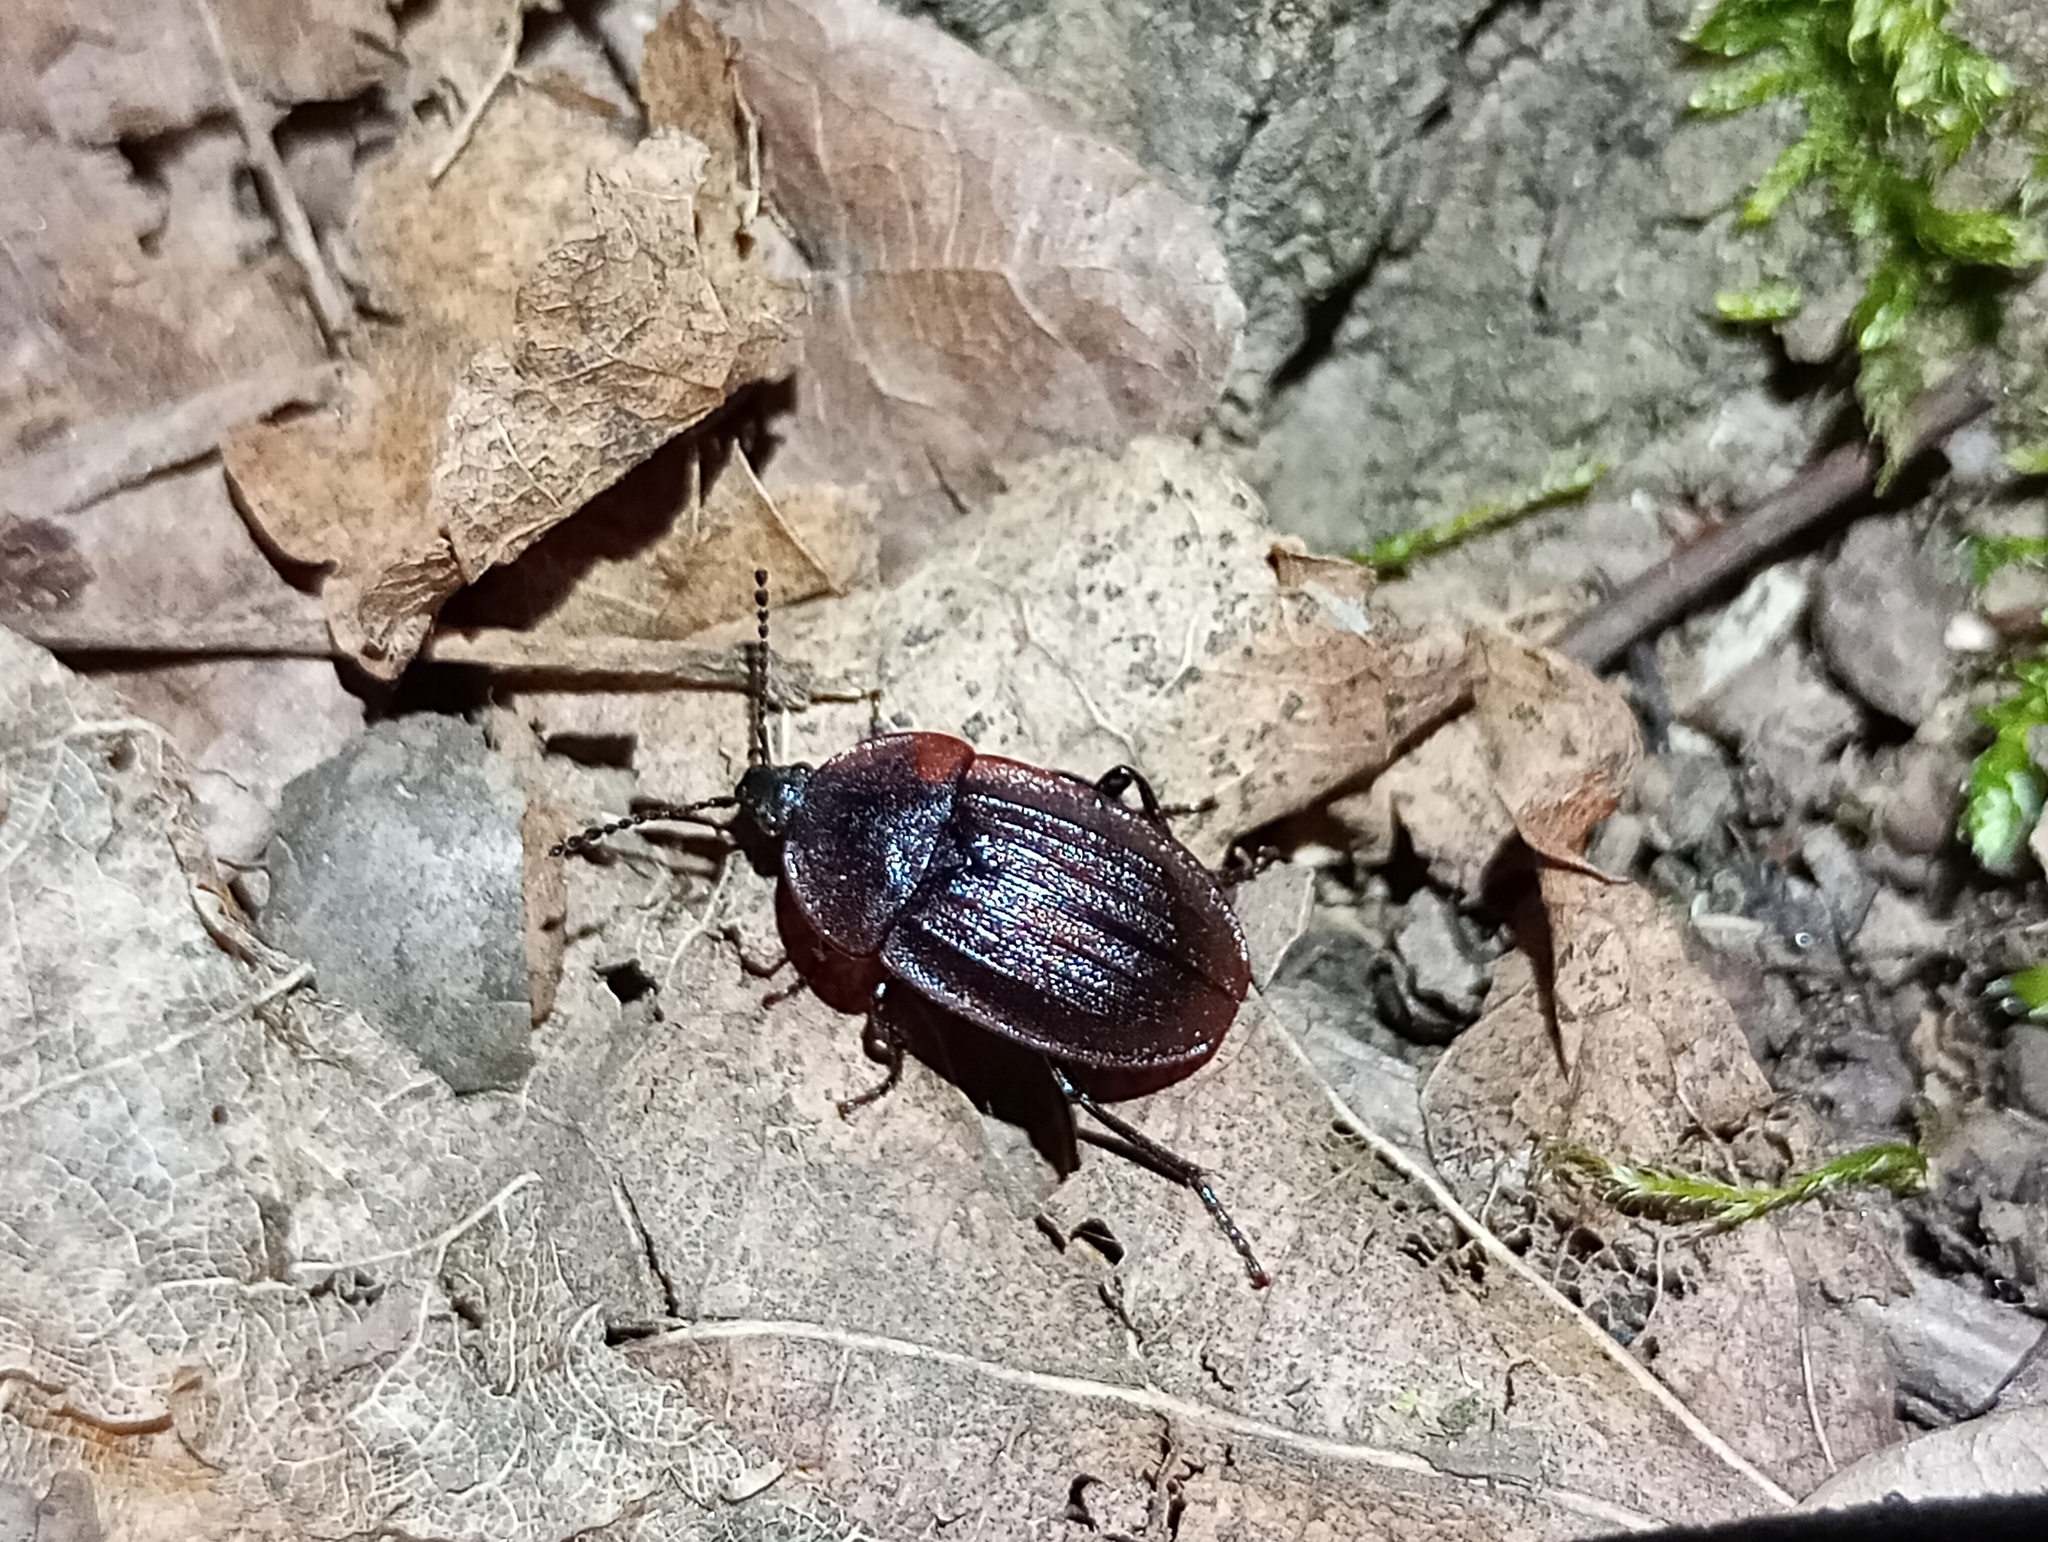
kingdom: Animalia
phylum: Arthropoda
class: Insecta
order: Coleoptera
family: Staphylinidae
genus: Silpha
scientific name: Silpha atrata
